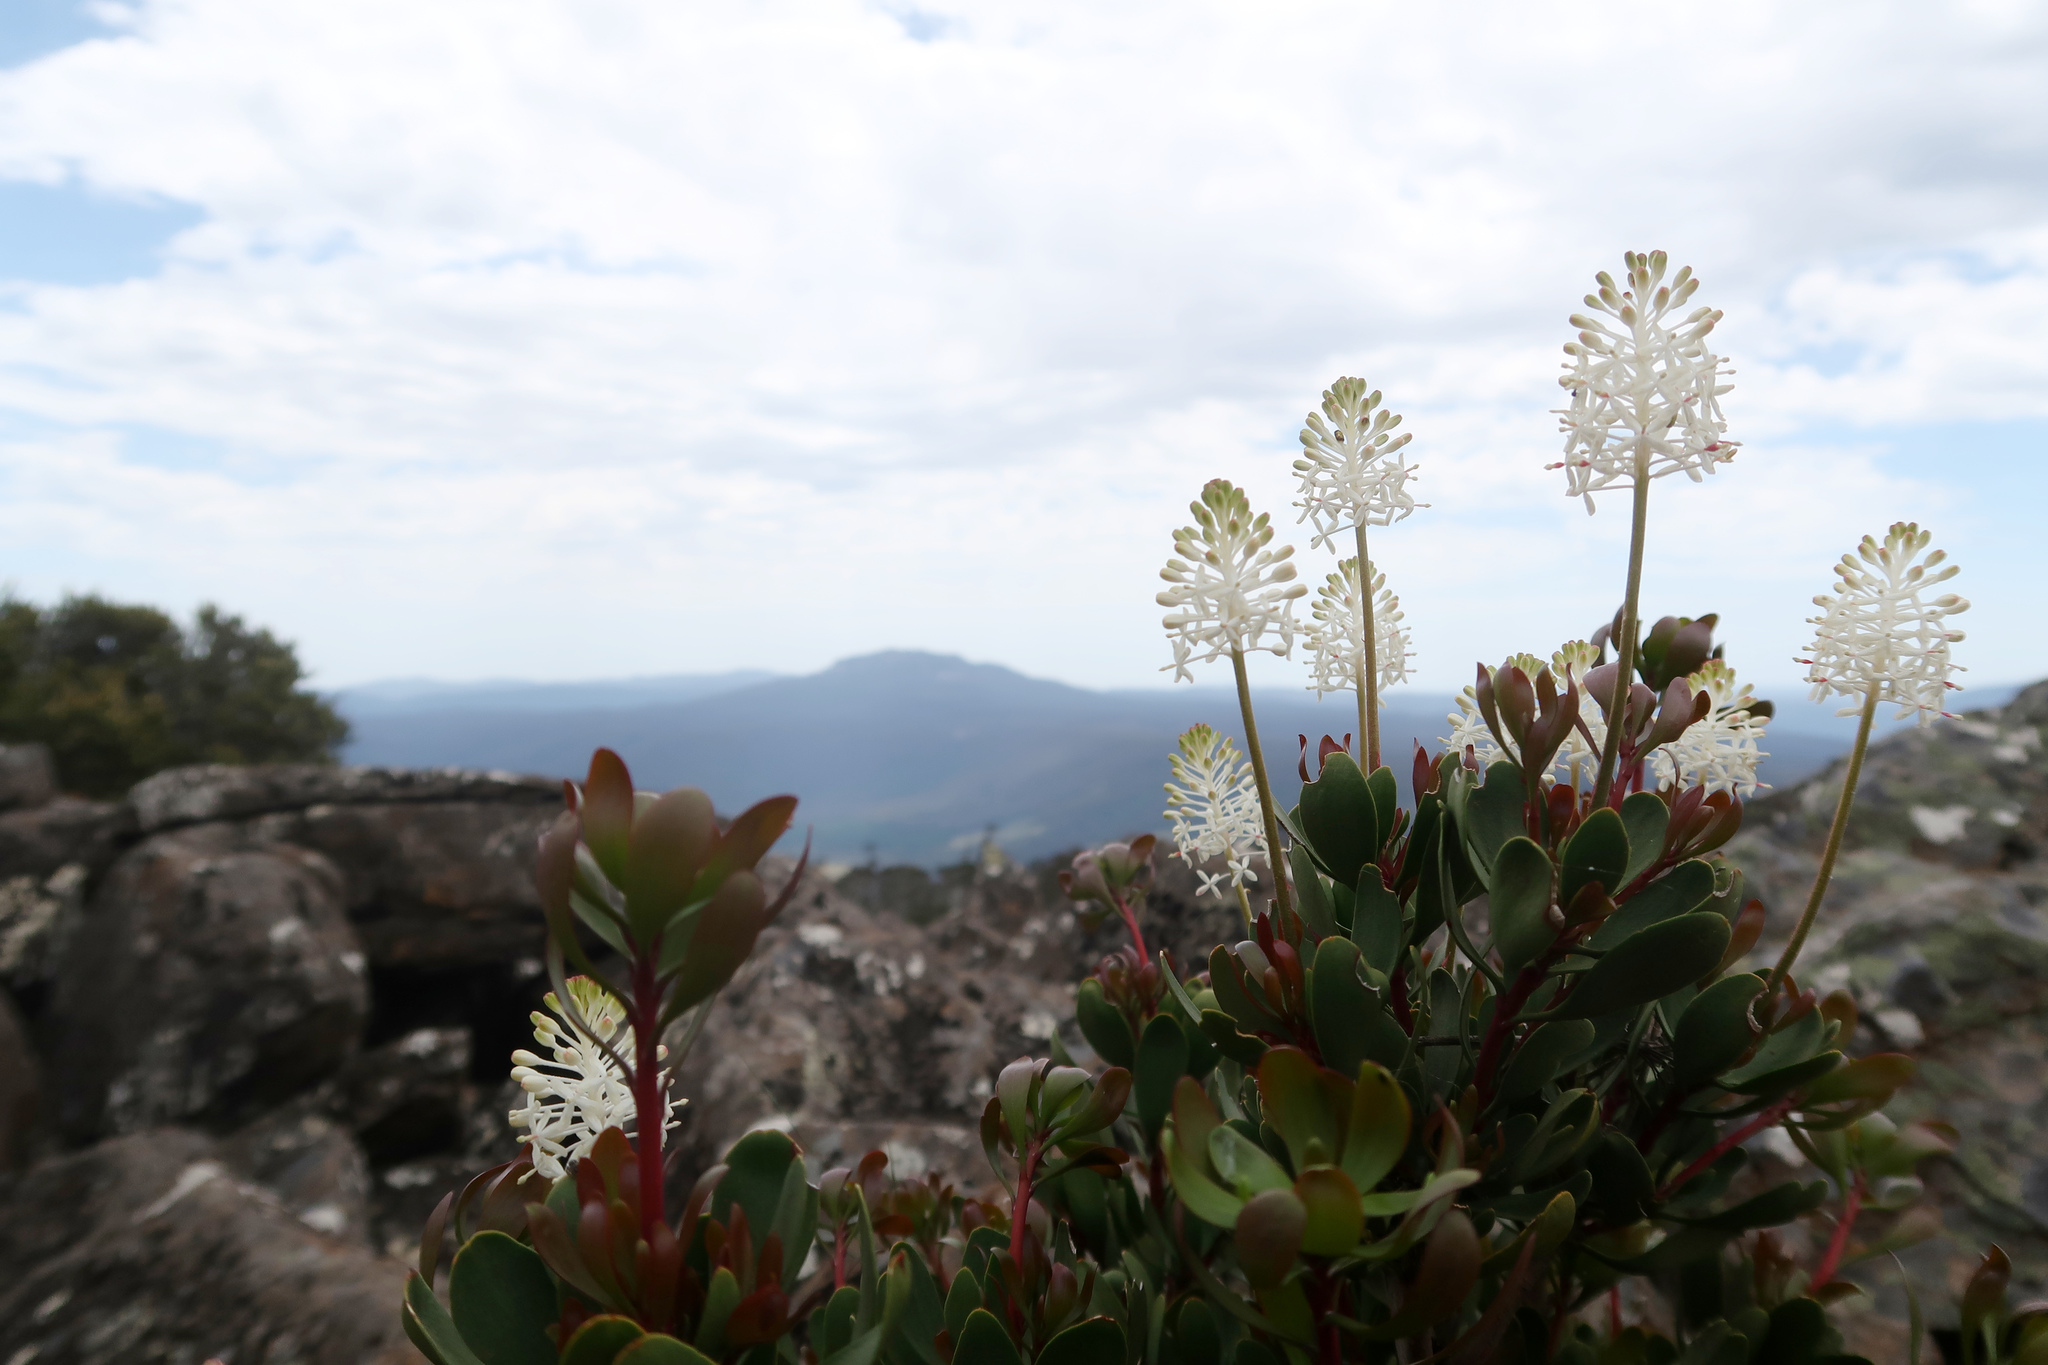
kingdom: Plantae
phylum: Tracheophyta
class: Magnoliopsida
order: Proteales
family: Proteaceae
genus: Bellendena
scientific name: Bellendena montana
